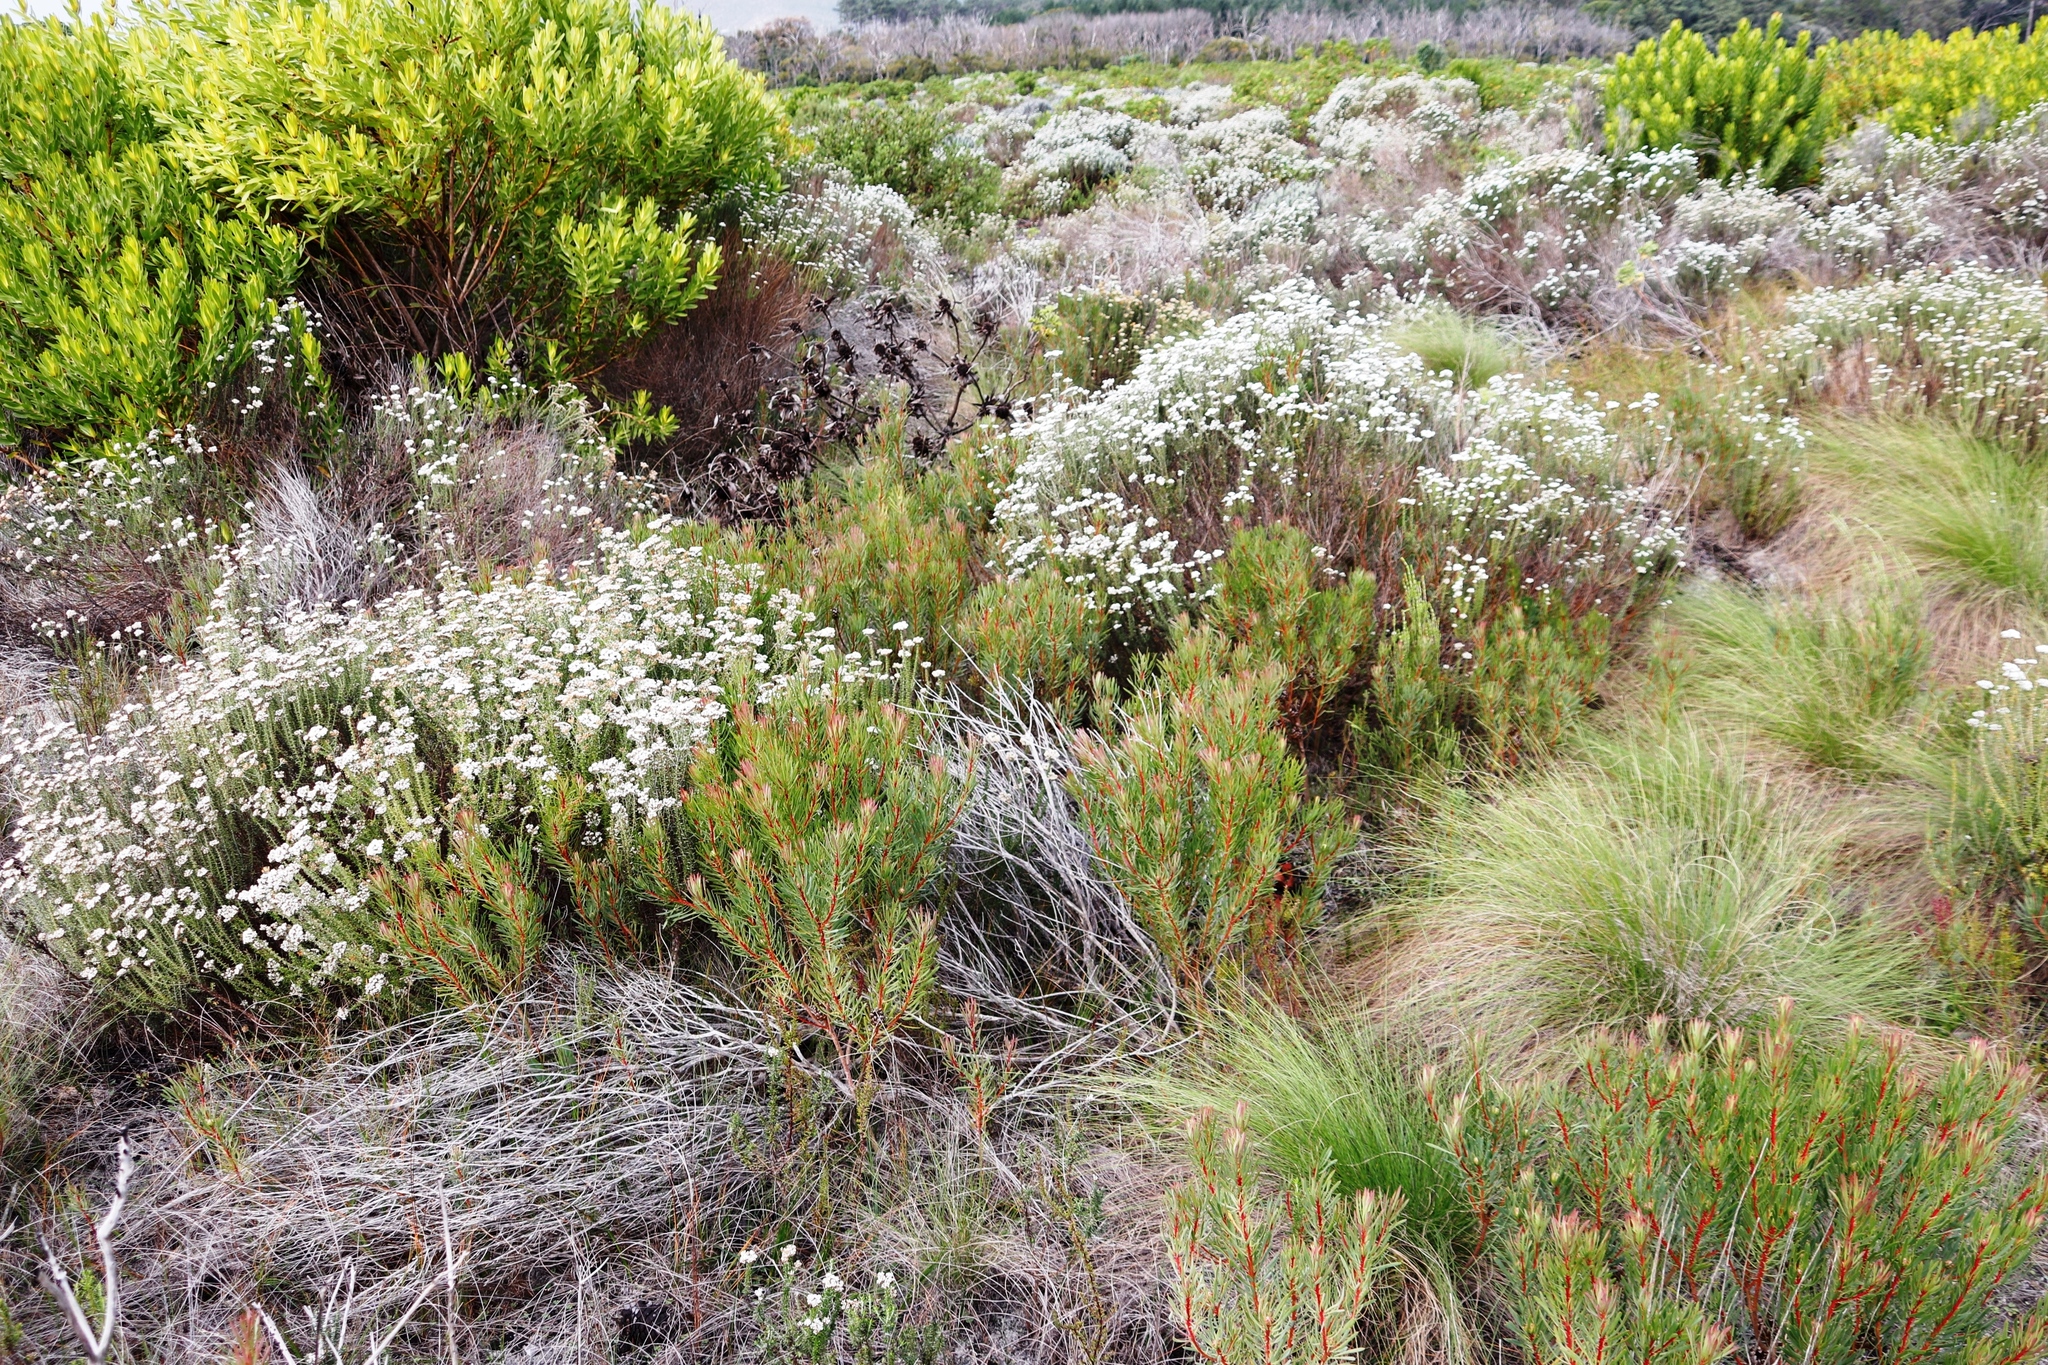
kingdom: Plantae
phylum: Tracheophyta
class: Magnoliopsida
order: Proteales
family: Proteaceae
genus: Protea
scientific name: Protea scolymocephala
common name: Thistle sugarbush
